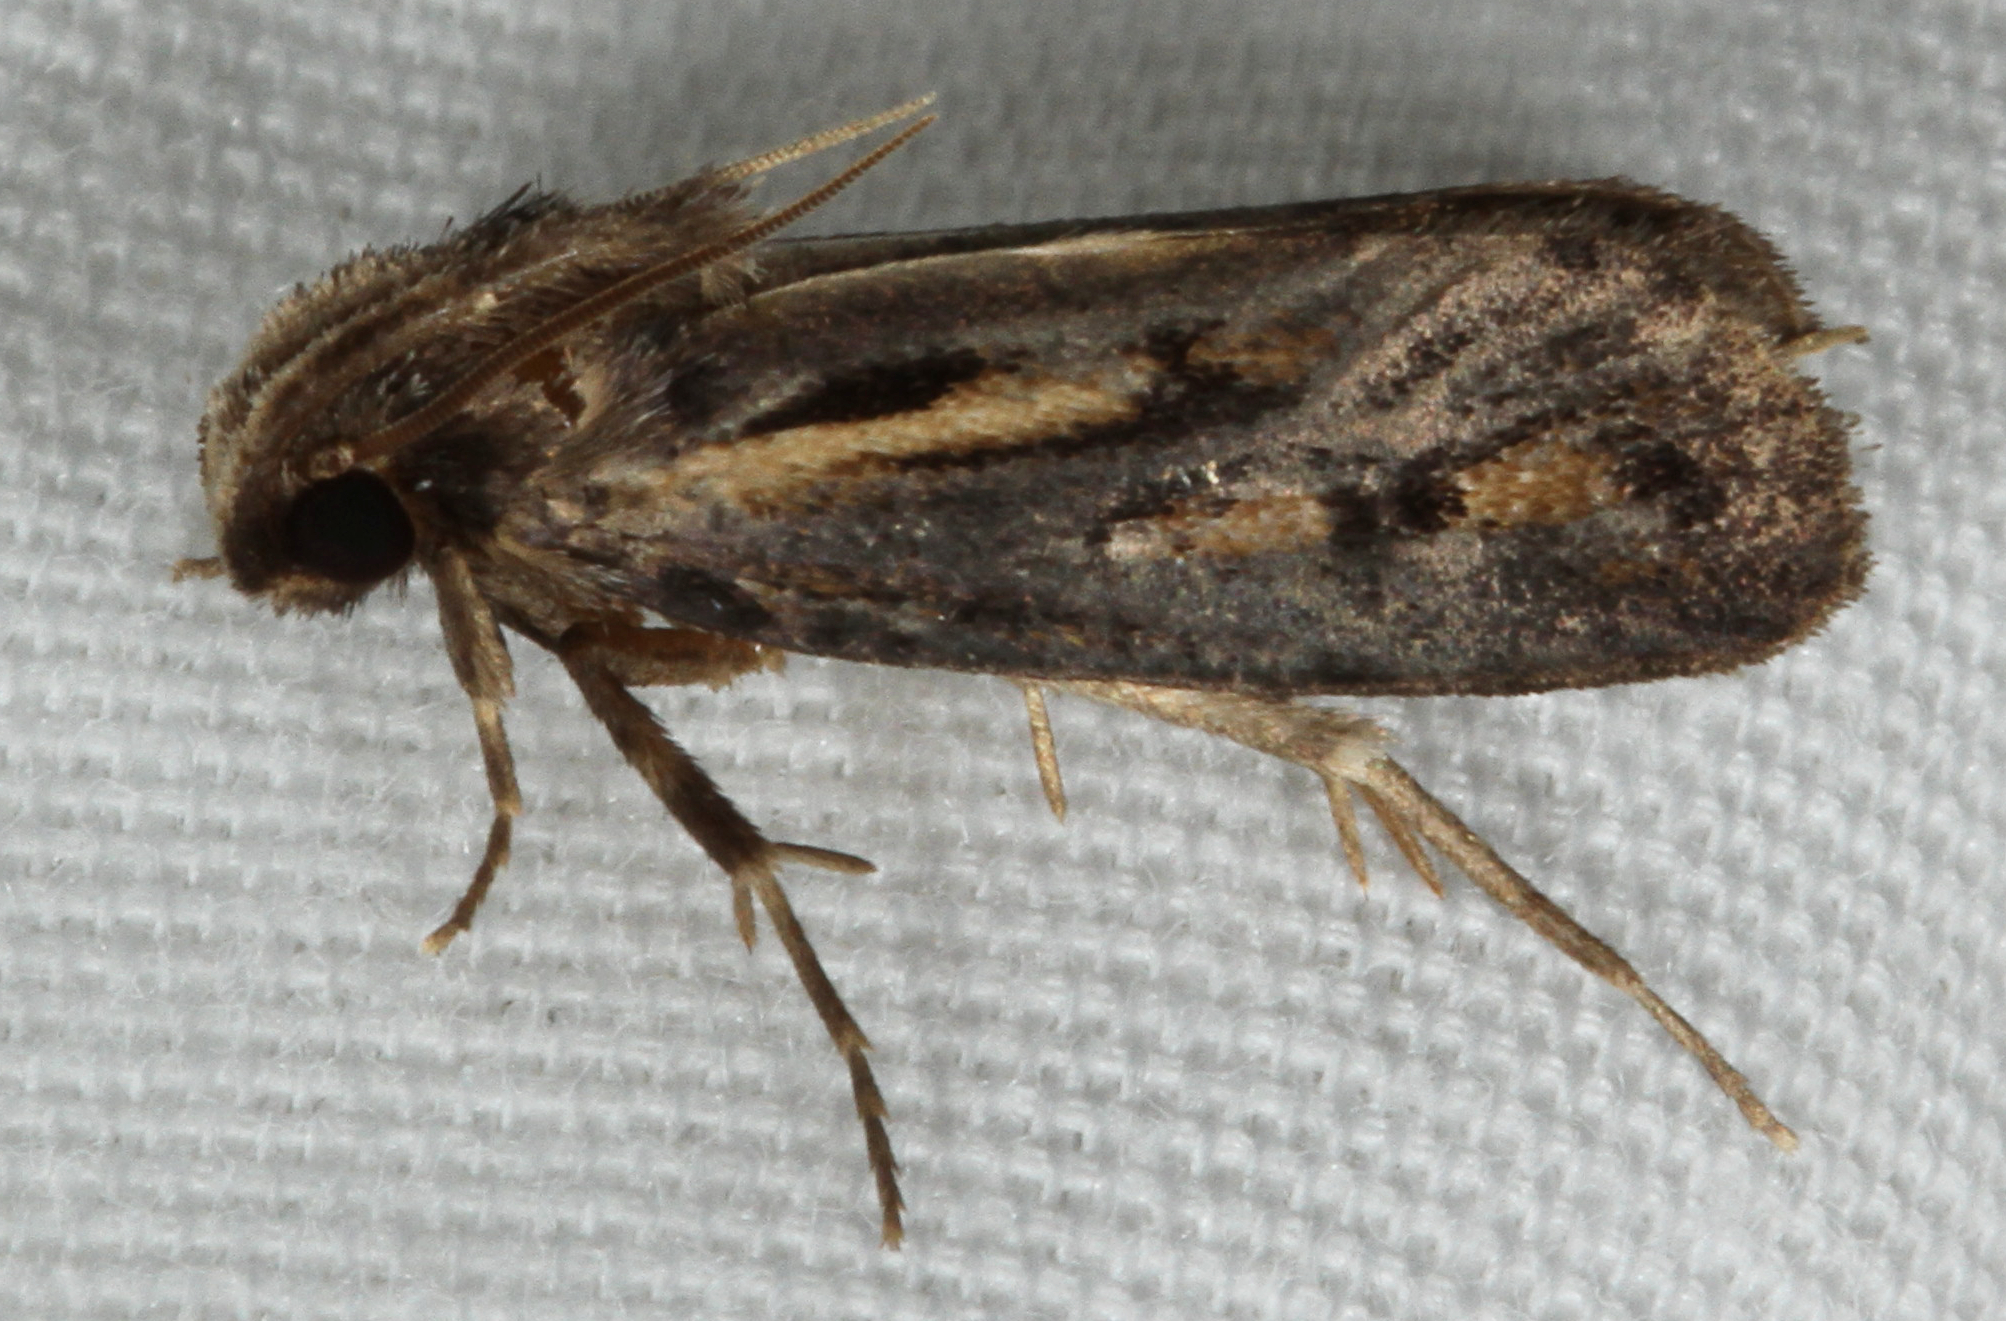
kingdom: Animalia
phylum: Arthropoda
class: Insecta
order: Lepidoptera
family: Tineidae
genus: Acrolophus
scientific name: Acrolophus popeanella
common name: Clemens' grass tubeworm moth
